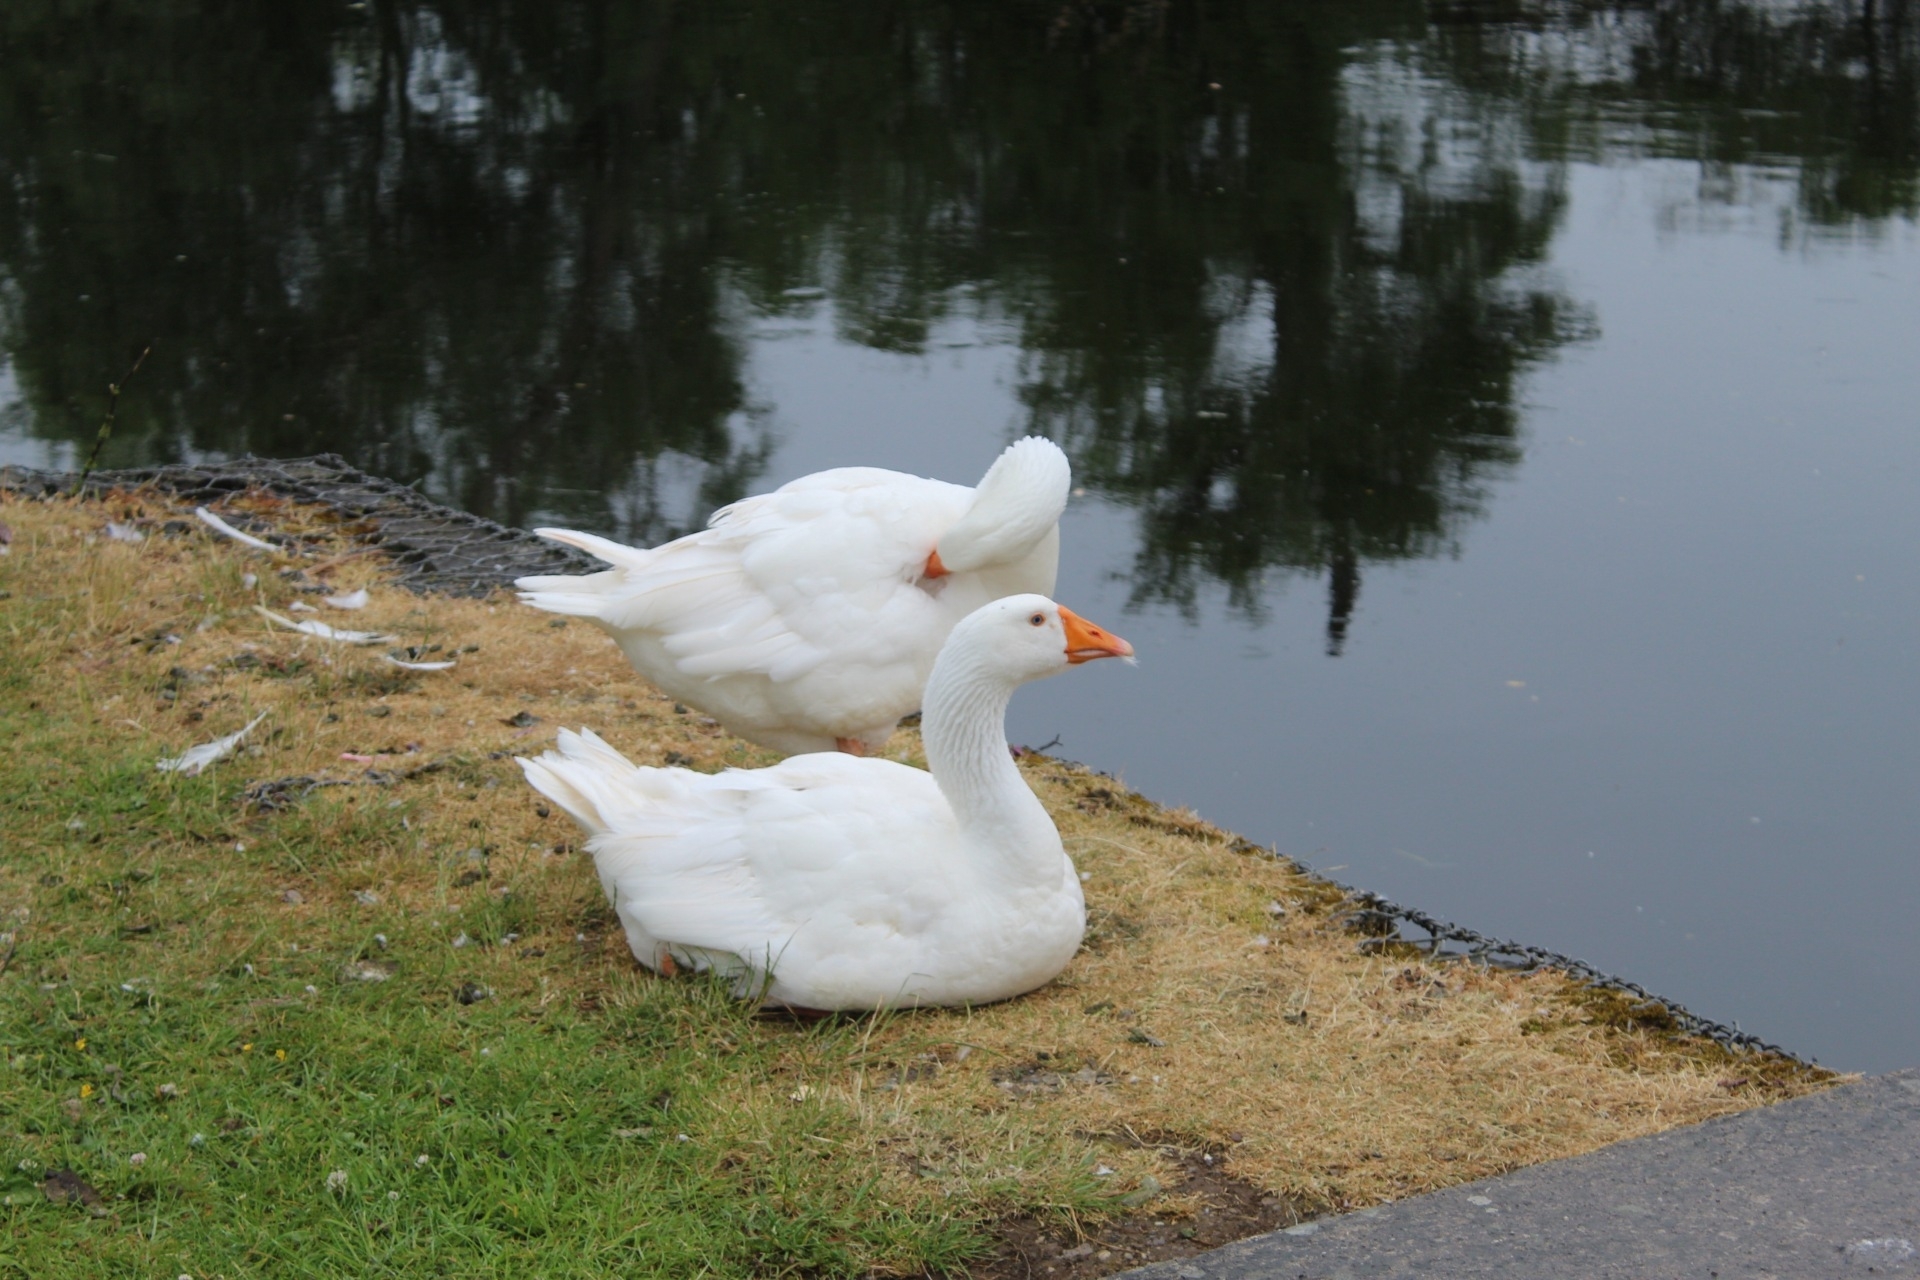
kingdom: Animalia
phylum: Chordata
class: Aves
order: Anseriformes
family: Anatidae
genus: Anser
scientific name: Anser anser
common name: Greylag goose
